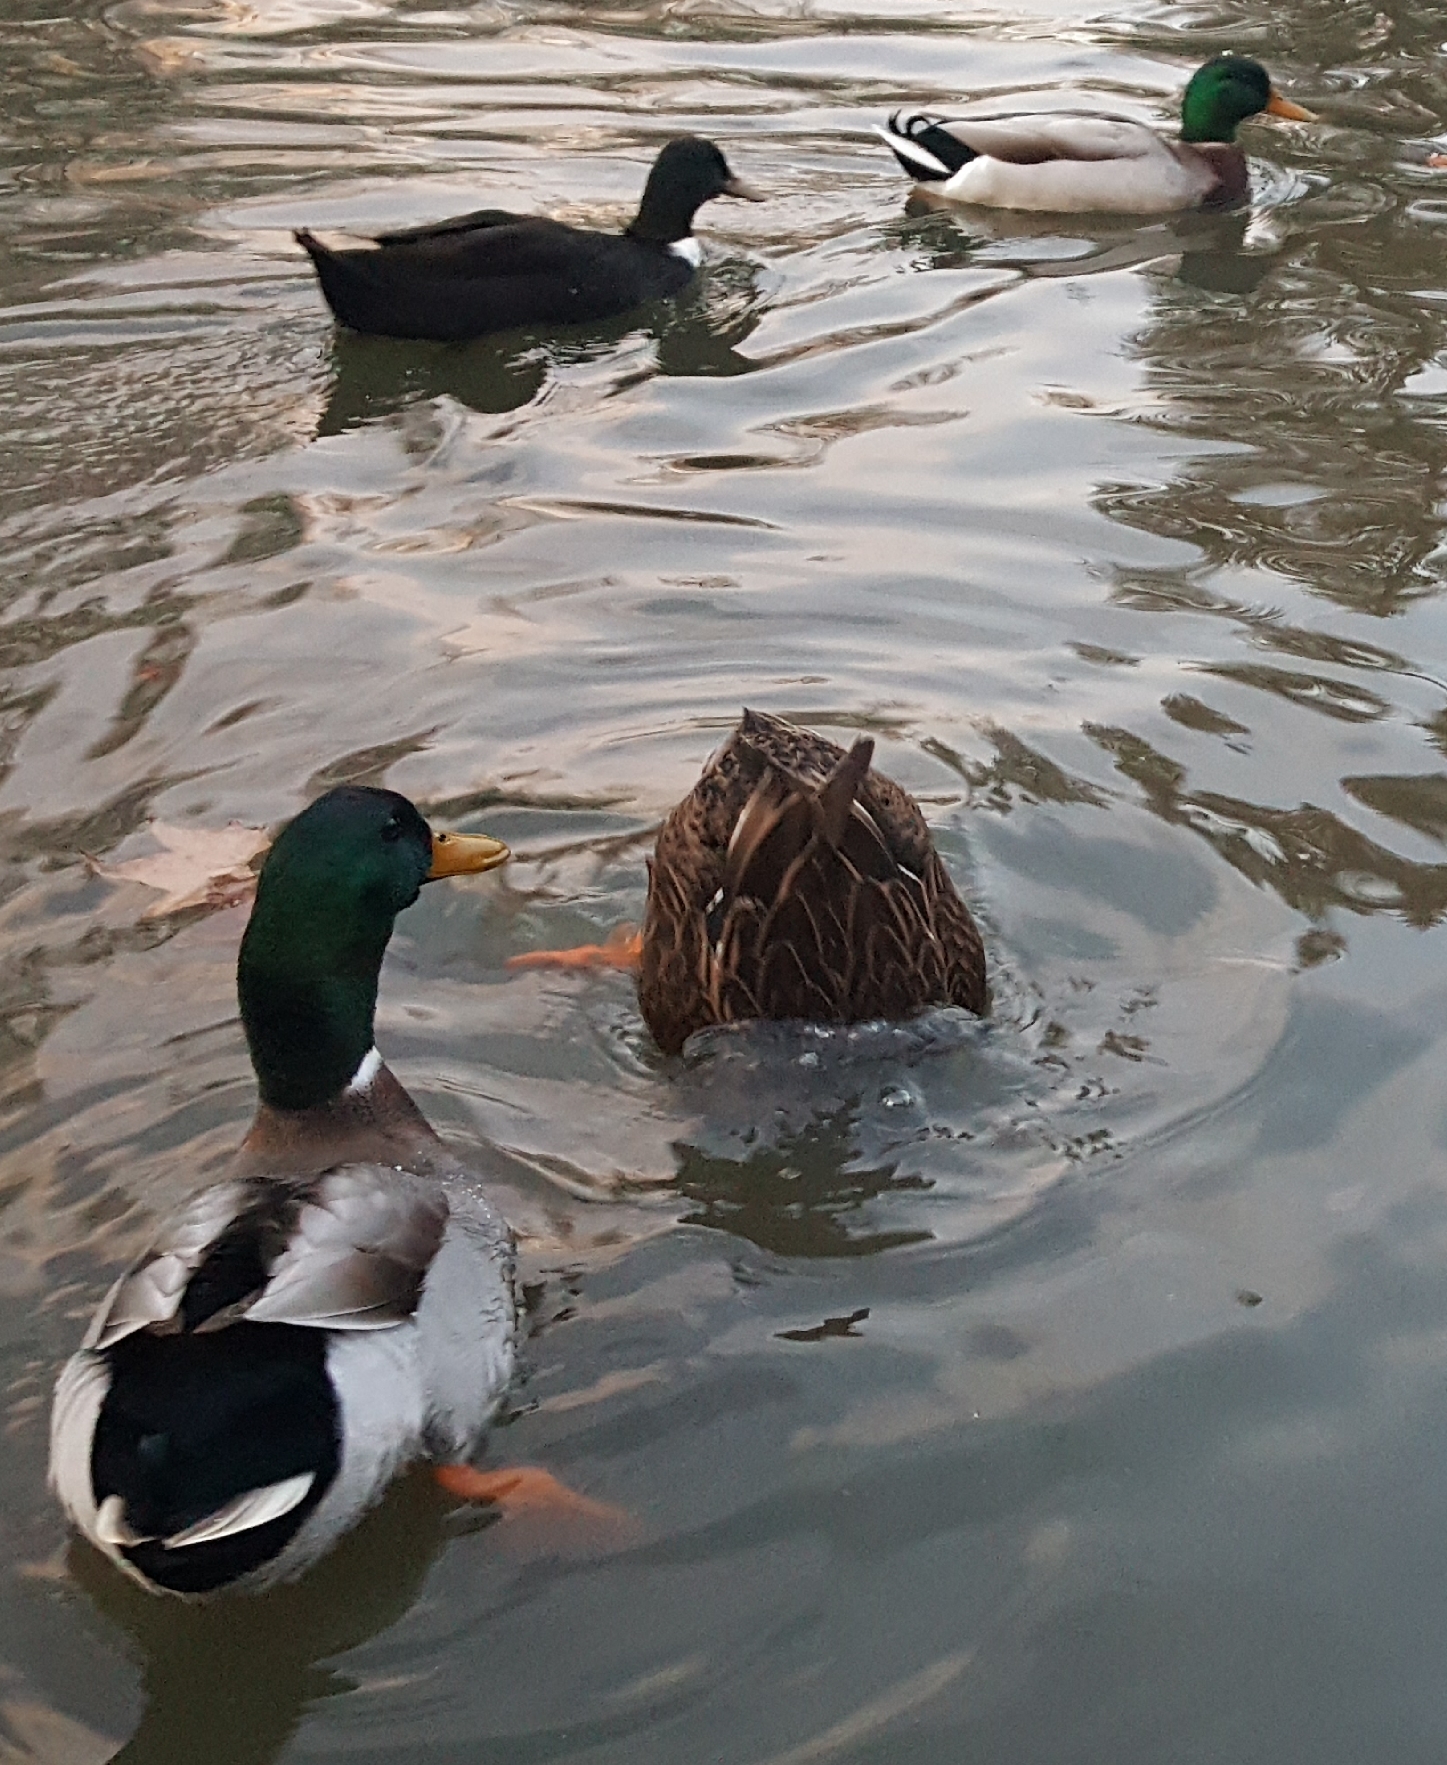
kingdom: Animalia
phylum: Chordata
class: Aves
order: Anseriformes
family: Anatidae
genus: Anas
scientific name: Anas platyrhynchos
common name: Mallard
